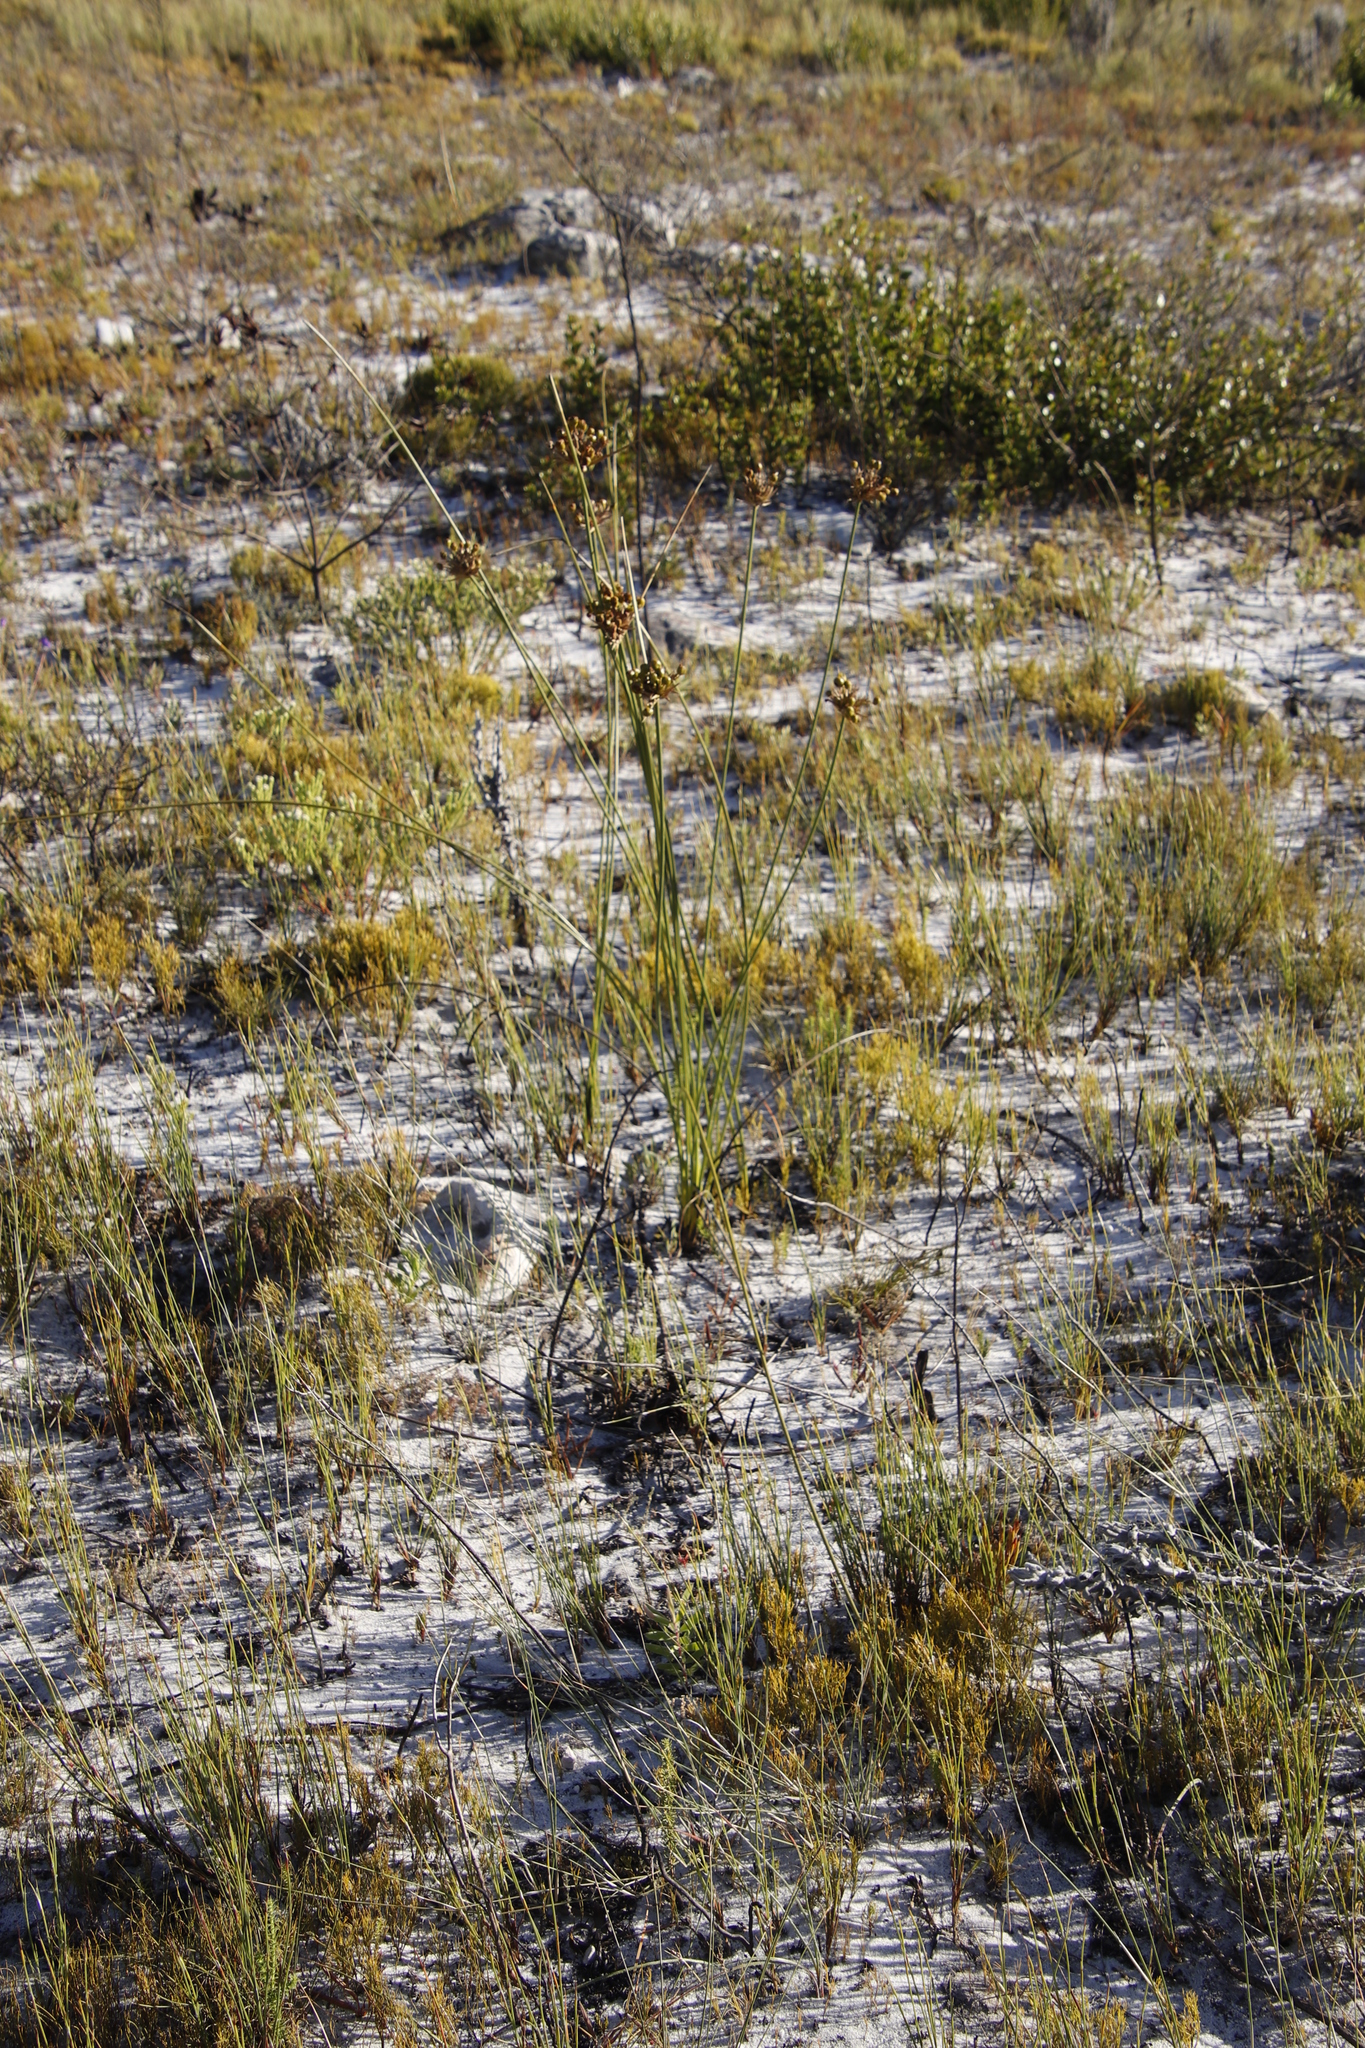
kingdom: Plantae
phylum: Tracheophyta
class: Liliopsida
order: Asparagales
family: Iridaceae
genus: Bobartia
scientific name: Bobartia indica
